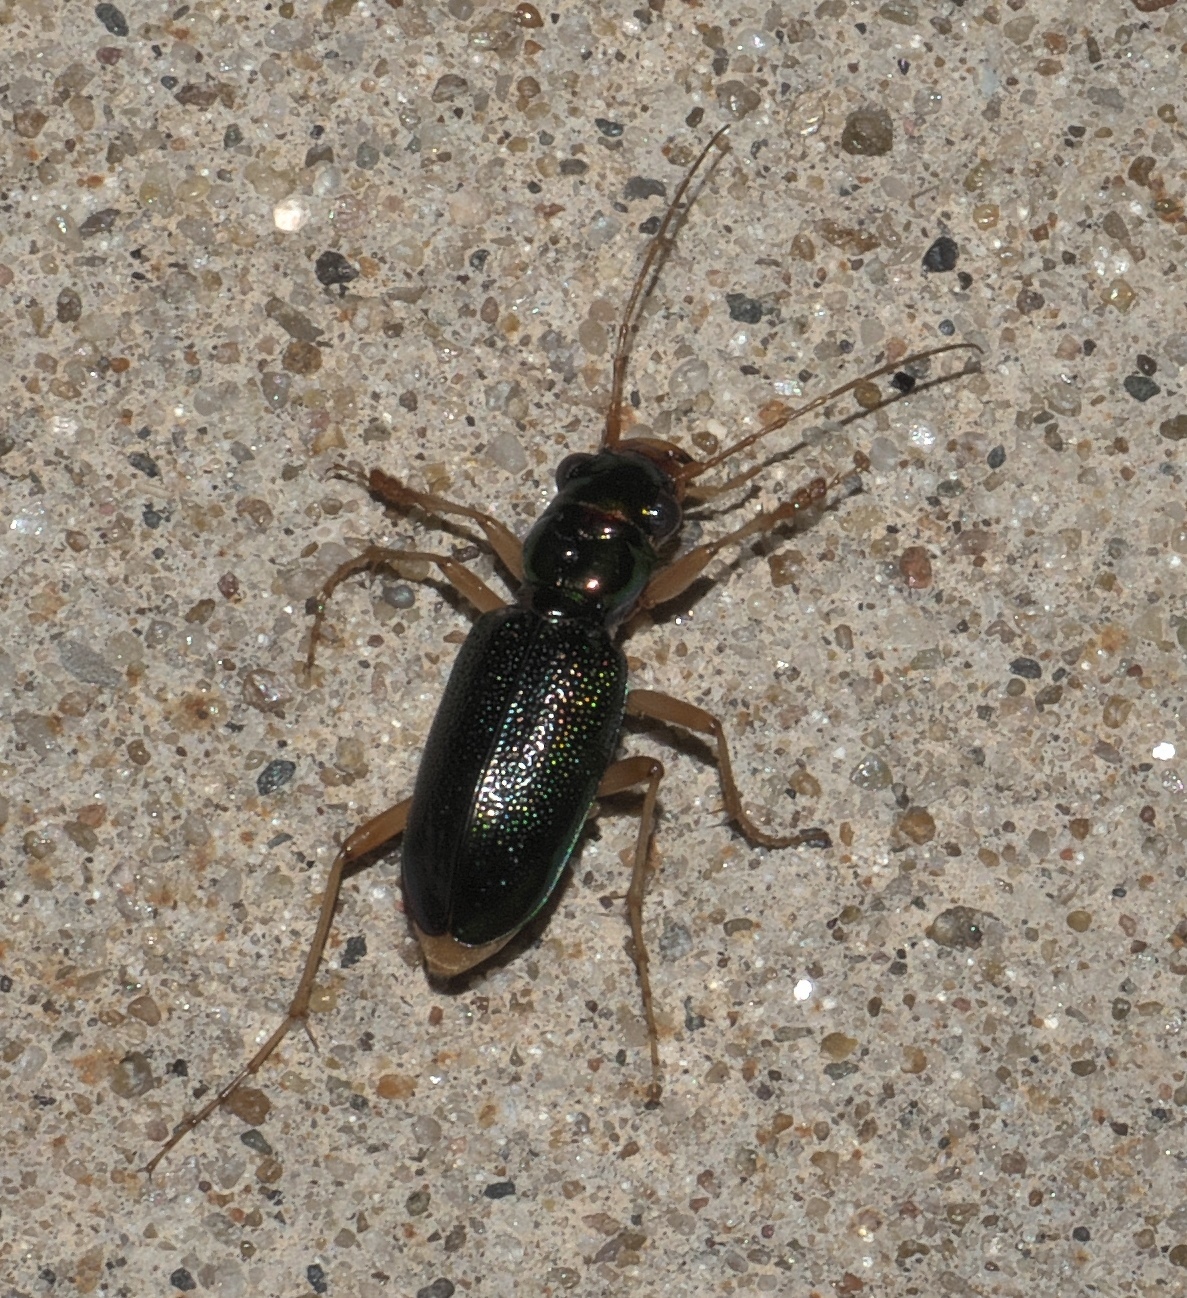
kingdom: Animalia
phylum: Arthropoda
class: Insecta
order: Coleoptera
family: Carabidae
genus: Tetracha
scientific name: Tetracha virginica
